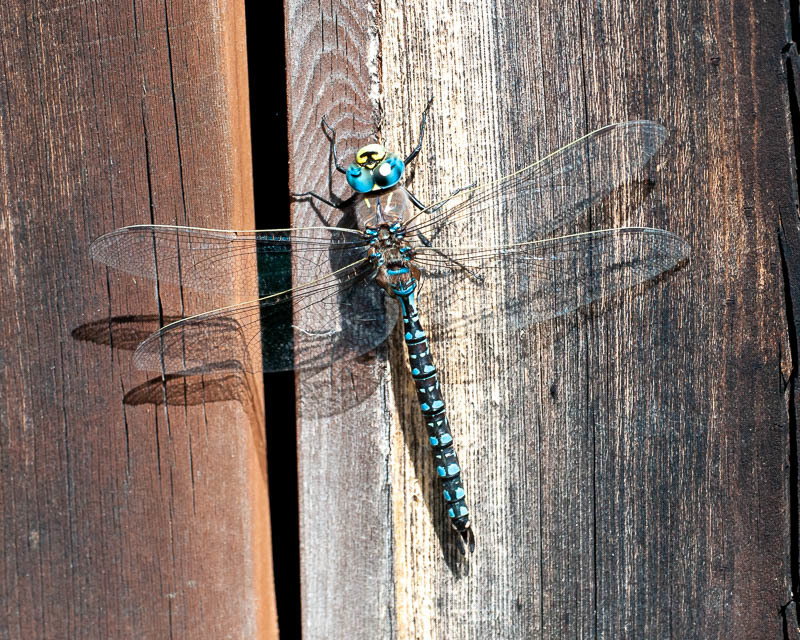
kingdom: Animalia
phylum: Arthropoda
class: Insecta
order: Odonata
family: Aeshnidae
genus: Aeshna
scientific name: Aeshna interrupta
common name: Variable darner
